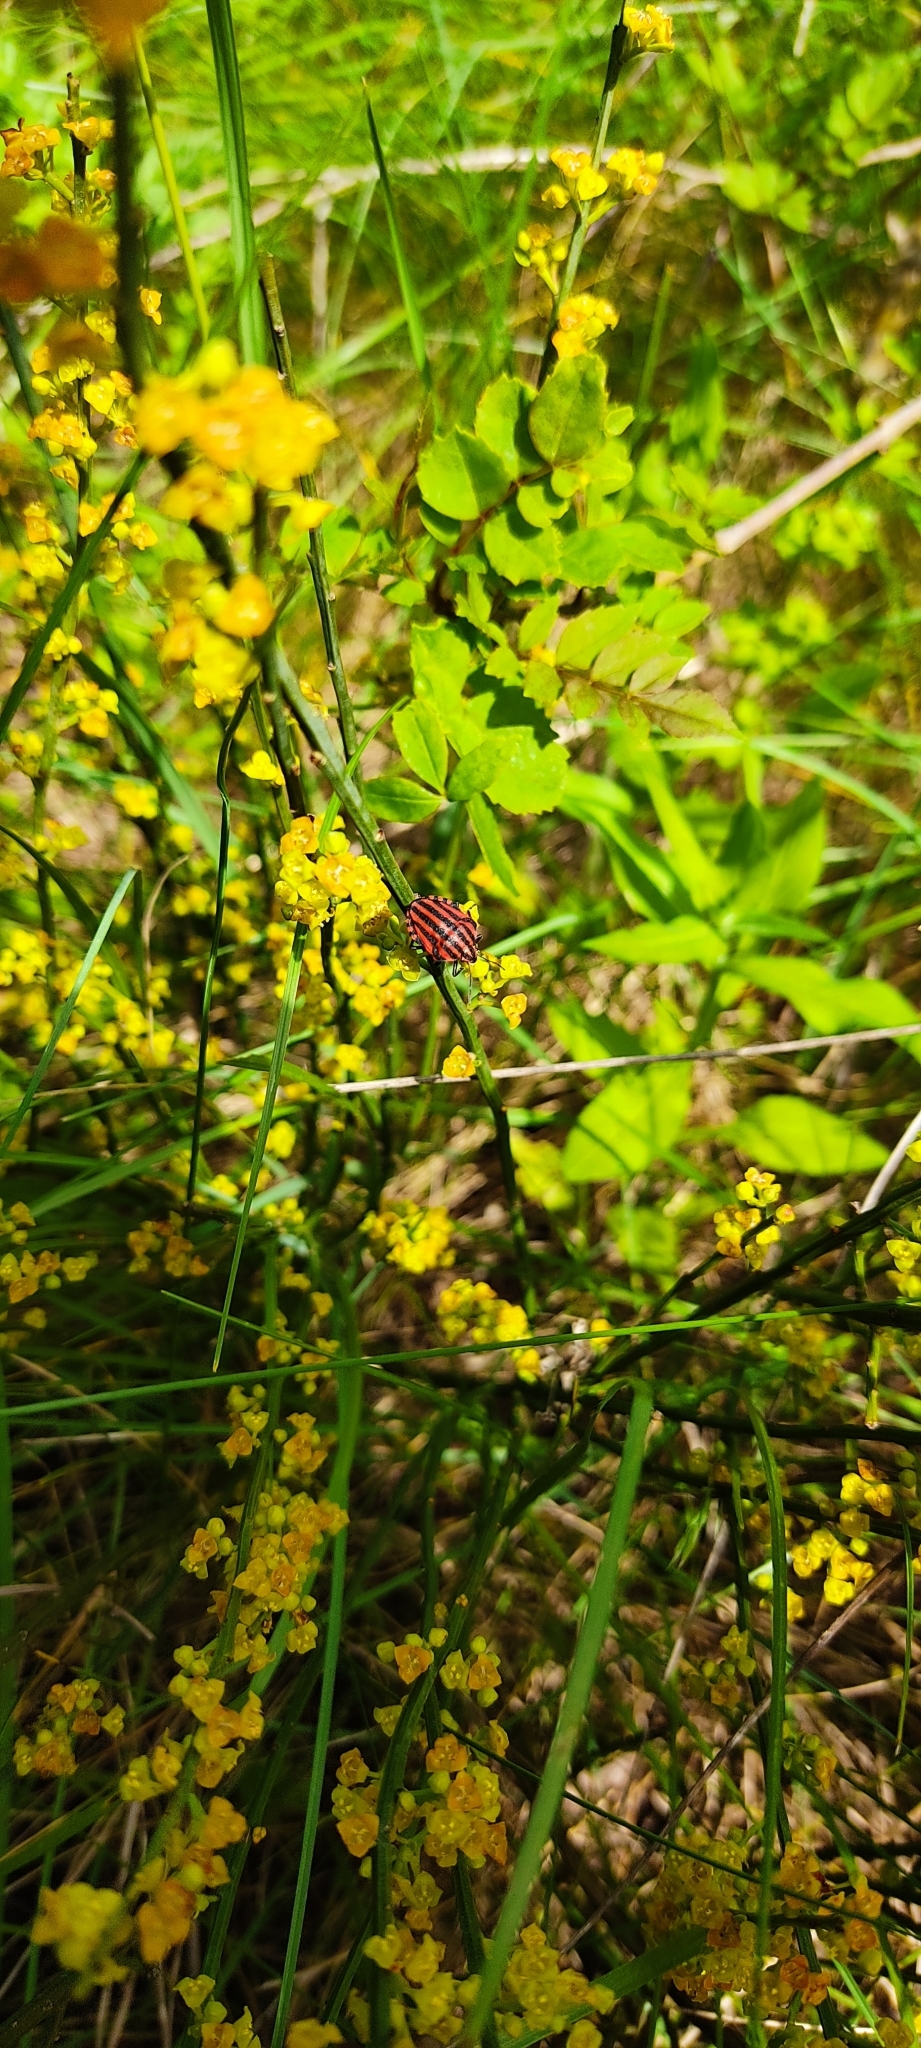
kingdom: Animalia
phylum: Arthropoda
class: Insecta
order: Hemiptera
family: Pentatomidae
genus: Graphosoma
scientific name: Graphosoma italicum
